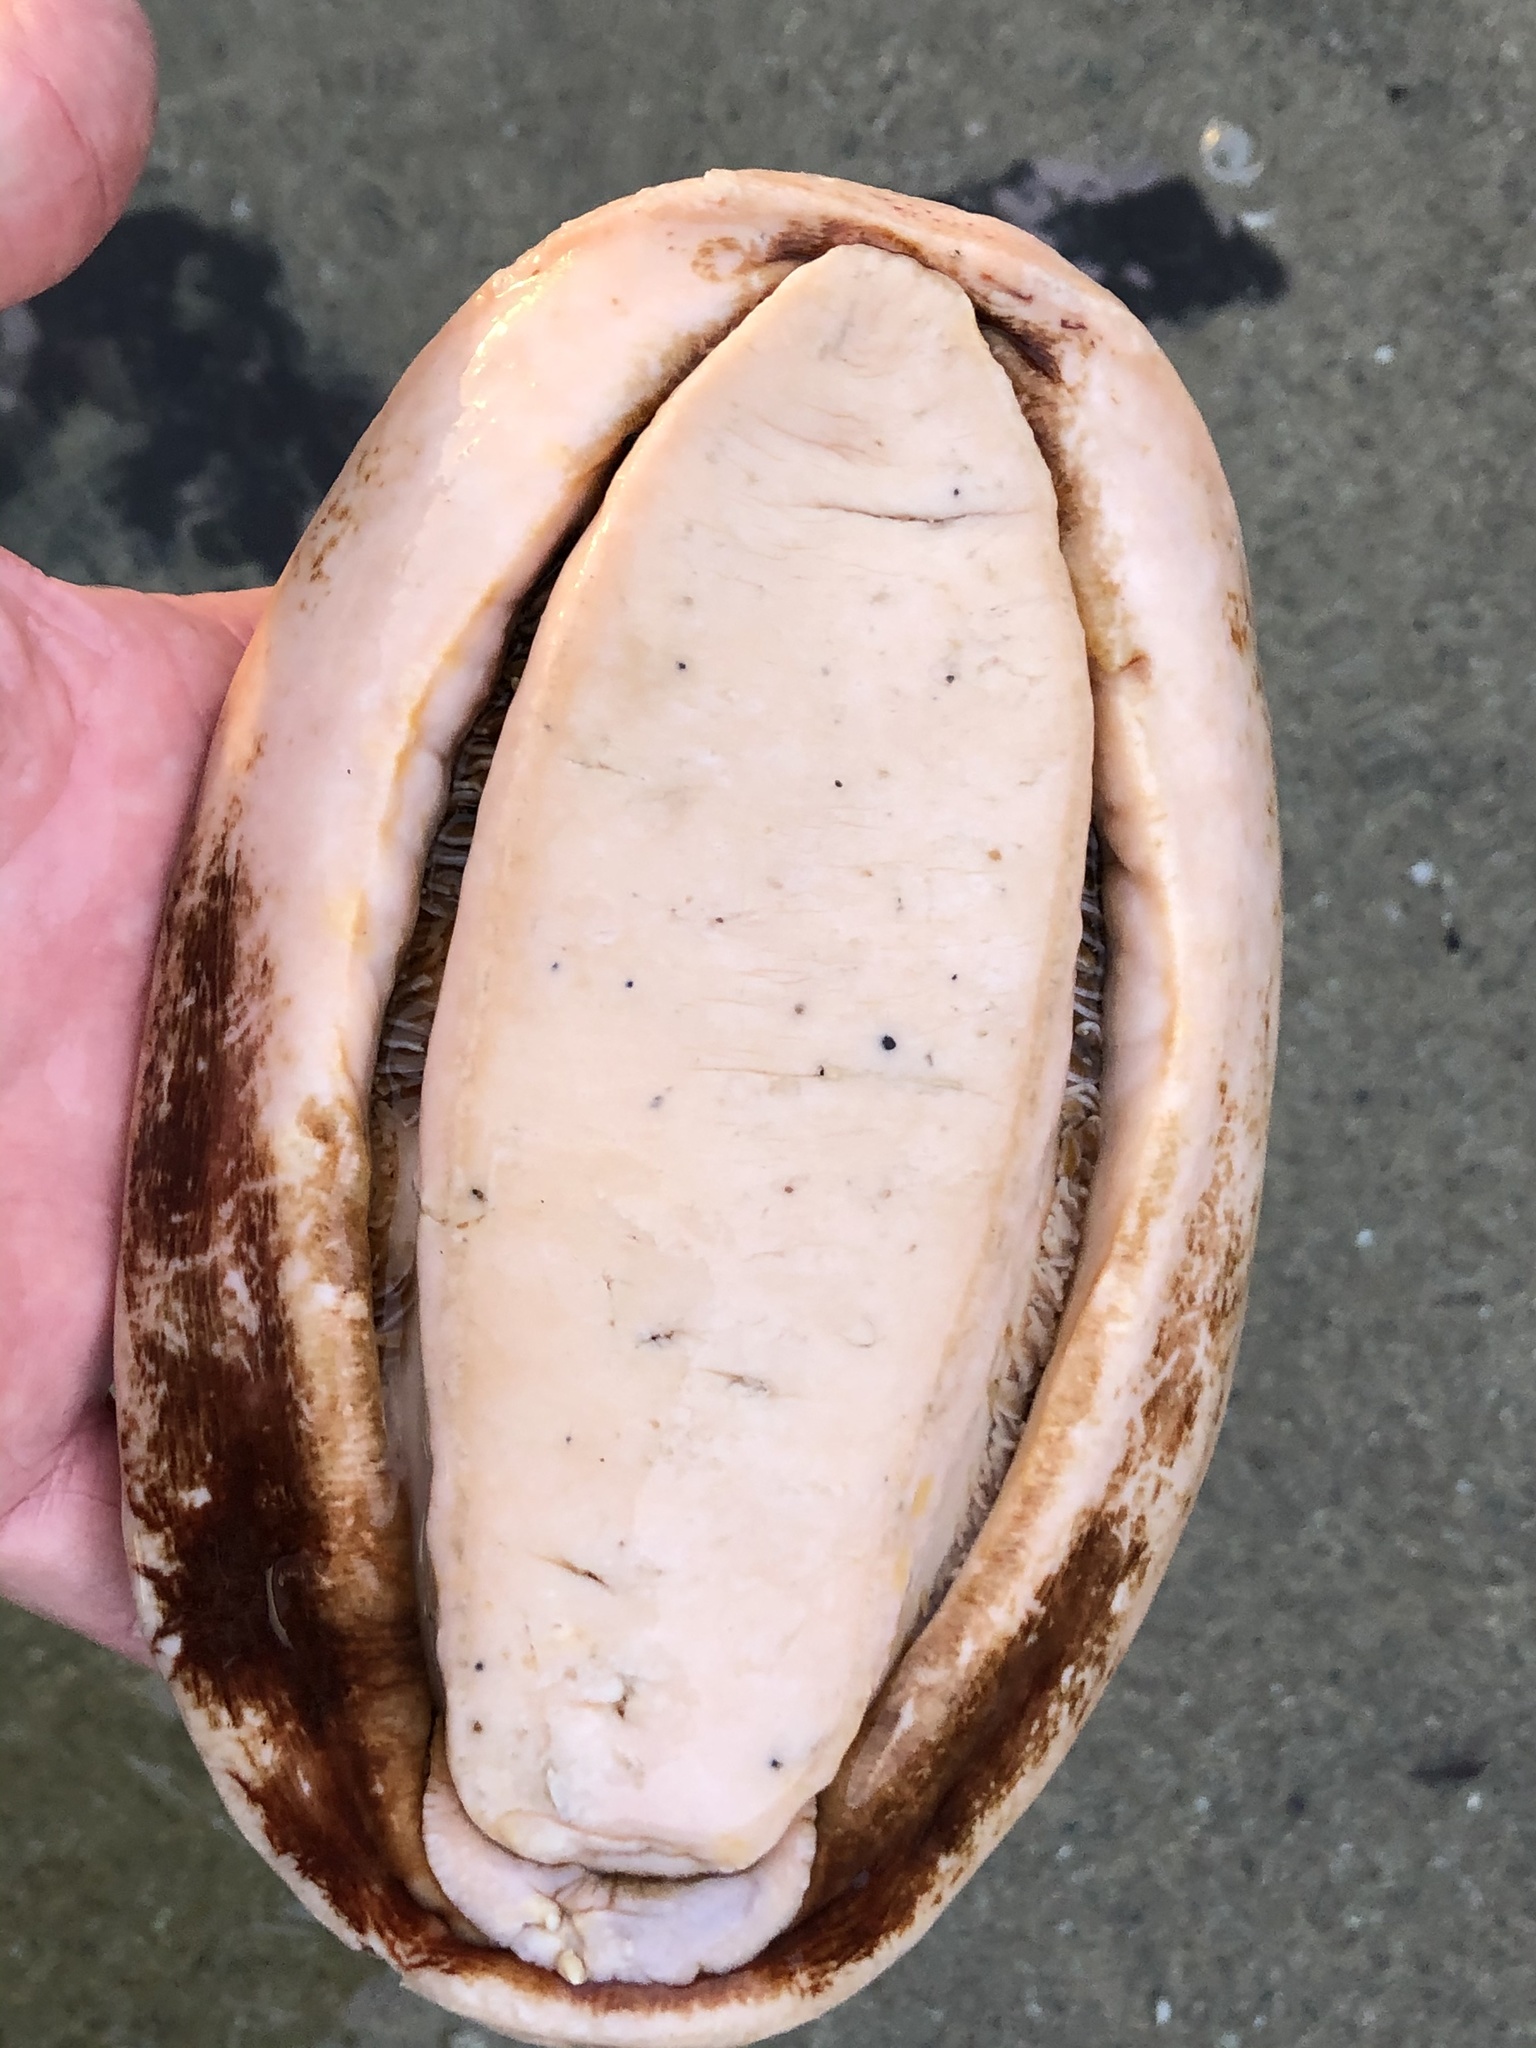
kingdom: Animalia
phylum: Mollusca
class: Polyplacophora
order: Chitonida
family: Acanthochitonidae
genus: Cryptochiton
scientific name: Cryptochiton stelleri
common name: Giant pacific chiton
